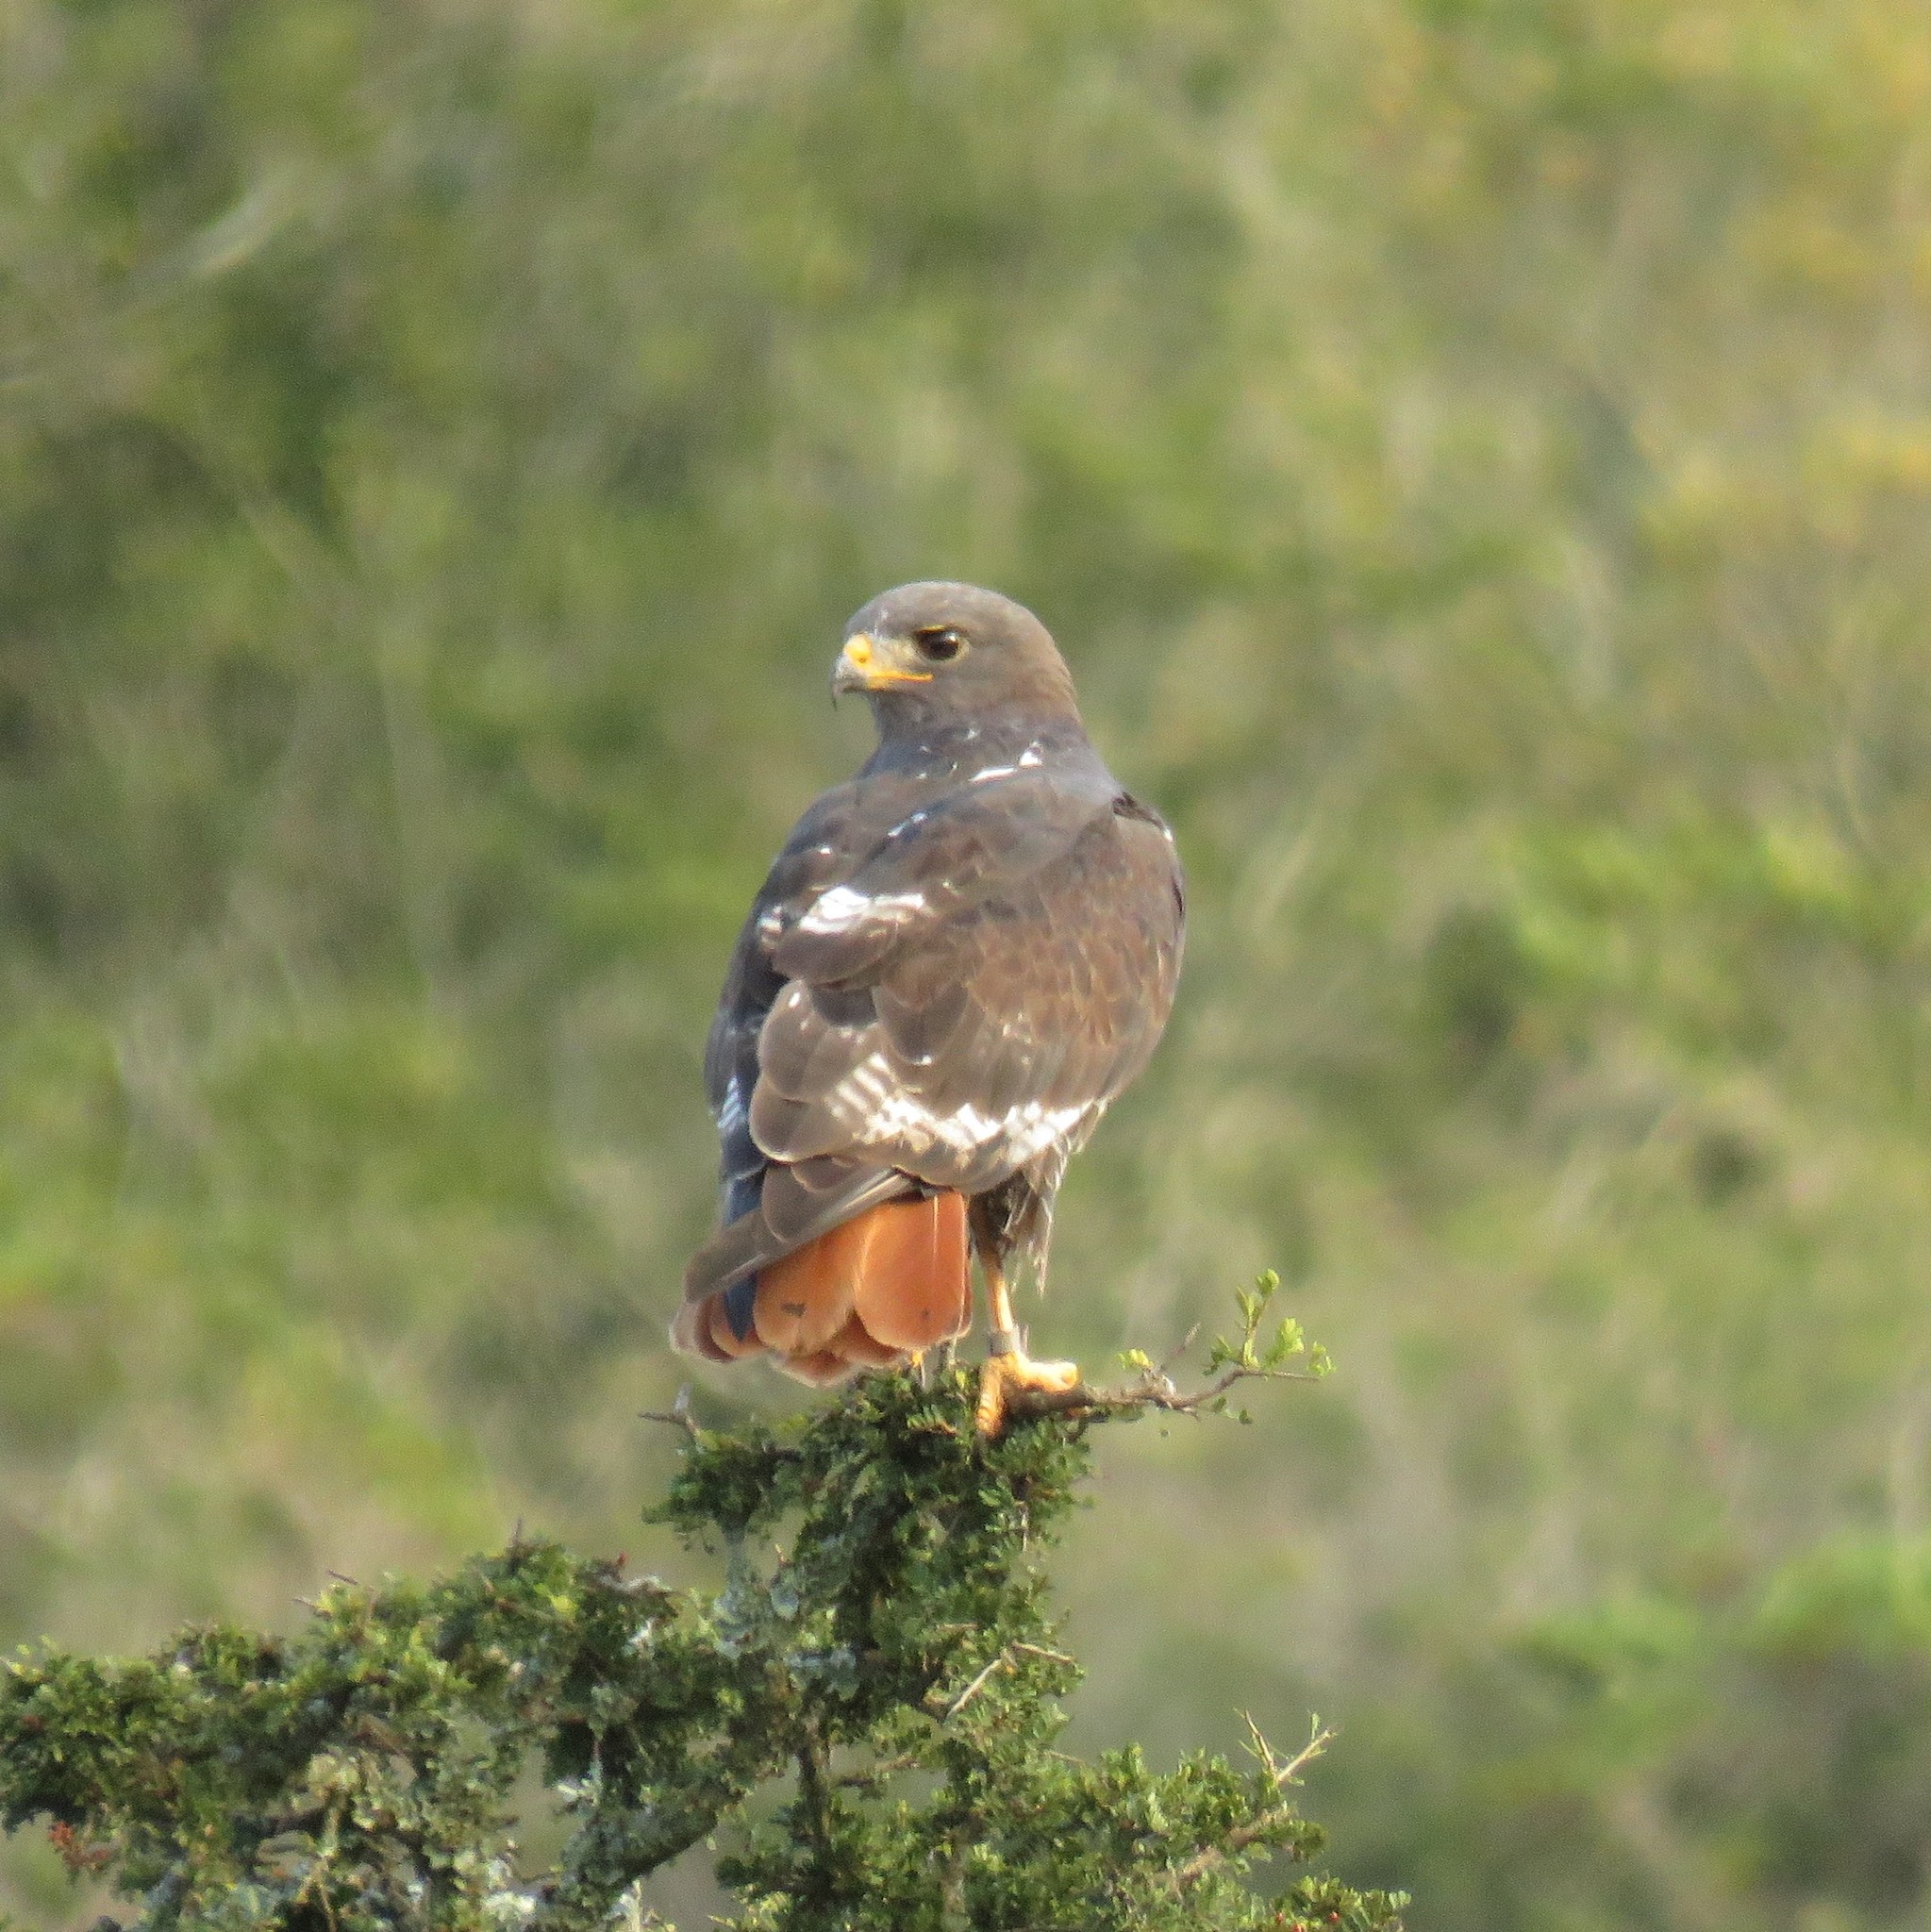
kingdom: Animalia
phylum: Chordata
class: Aves
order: Accipitriformes
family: Accipitridae
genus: Buteo
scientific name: Buteo rufofuscus
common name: Jackal buzzard
